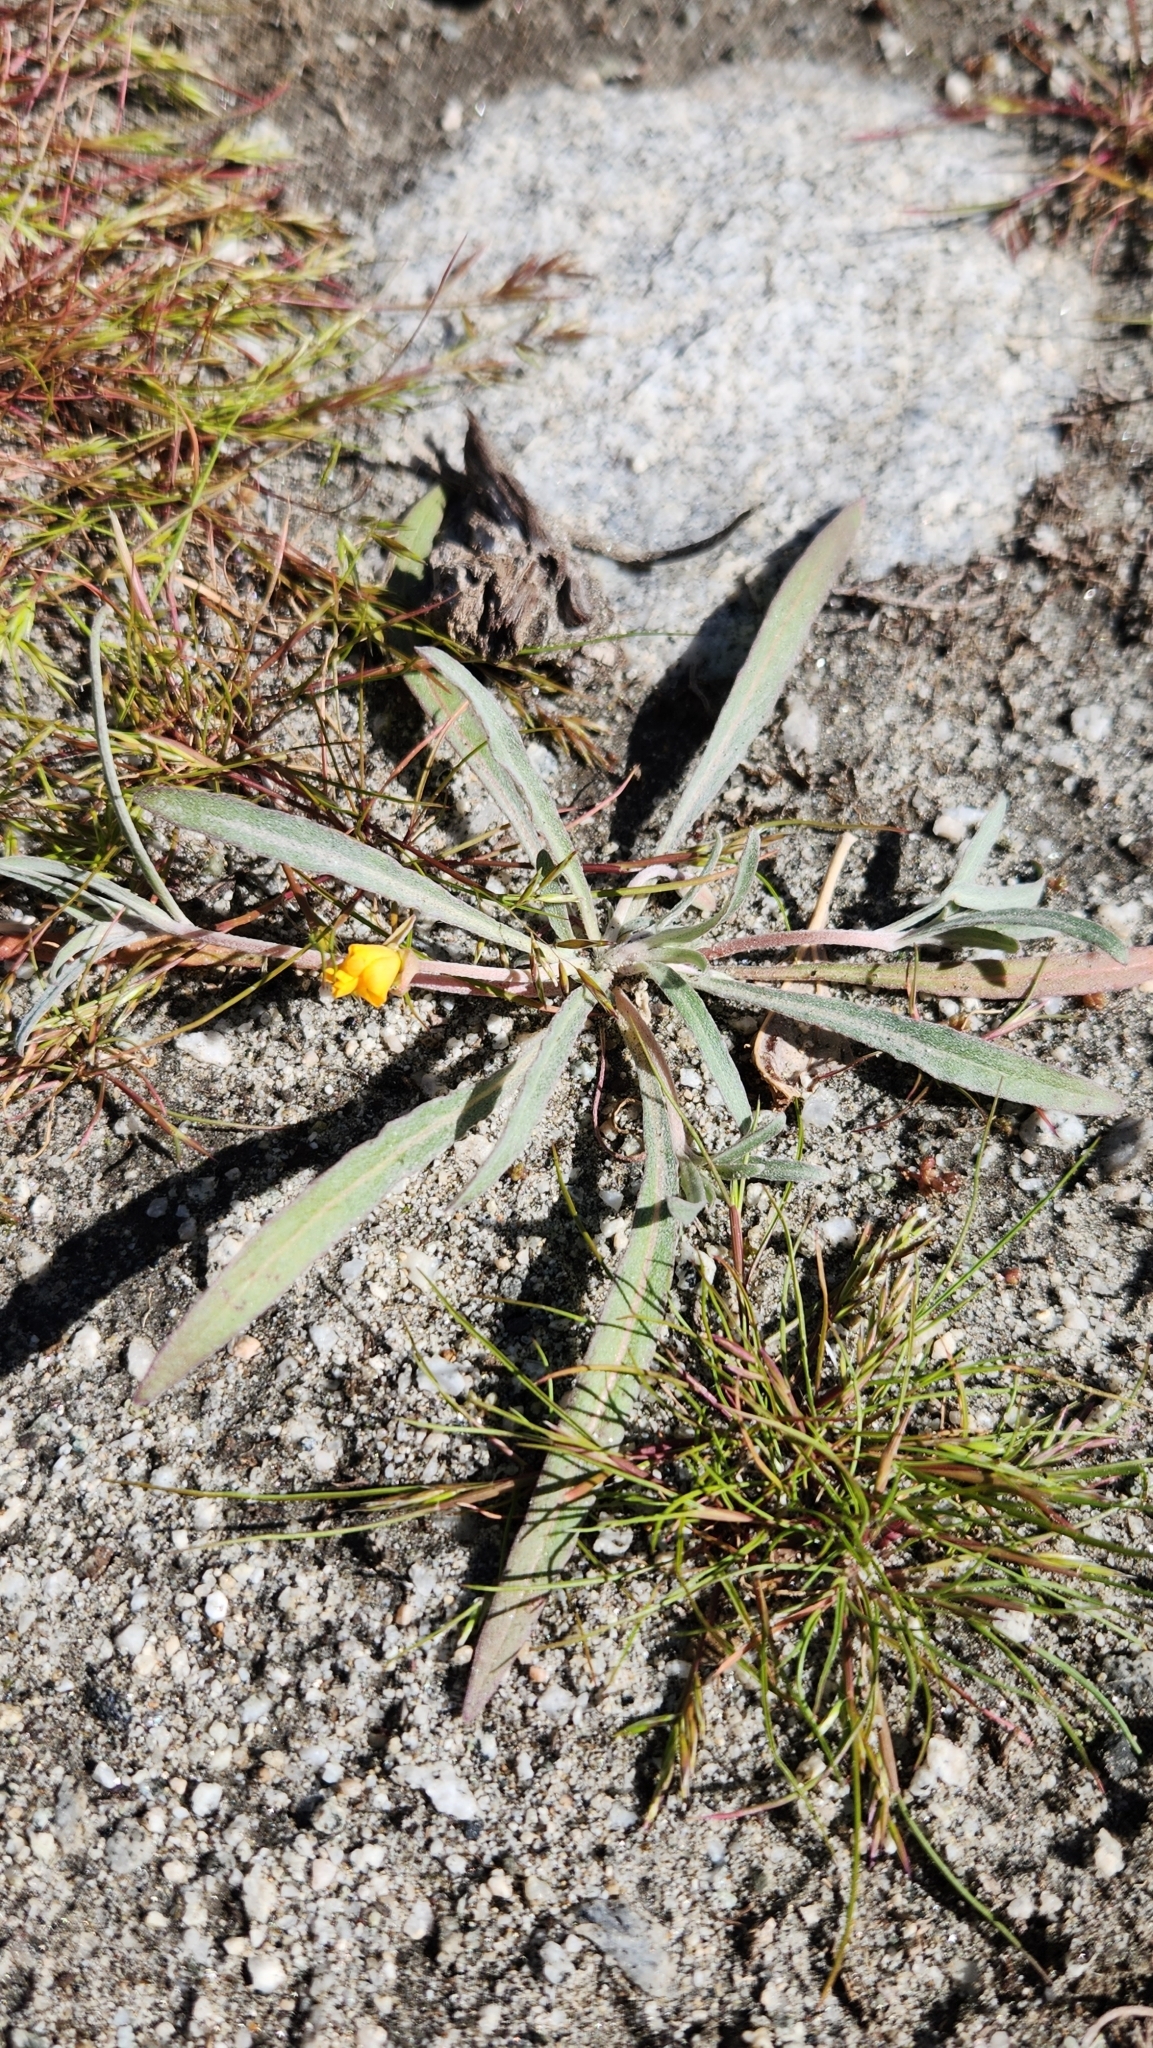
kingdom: Plantae
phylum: Tracheophyta
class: Magnoliopsida
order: Myrtales
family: Onagraceae
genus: Camissoniopsis
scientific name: Camissoniopsis pallida
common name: Paleyellow suncup
